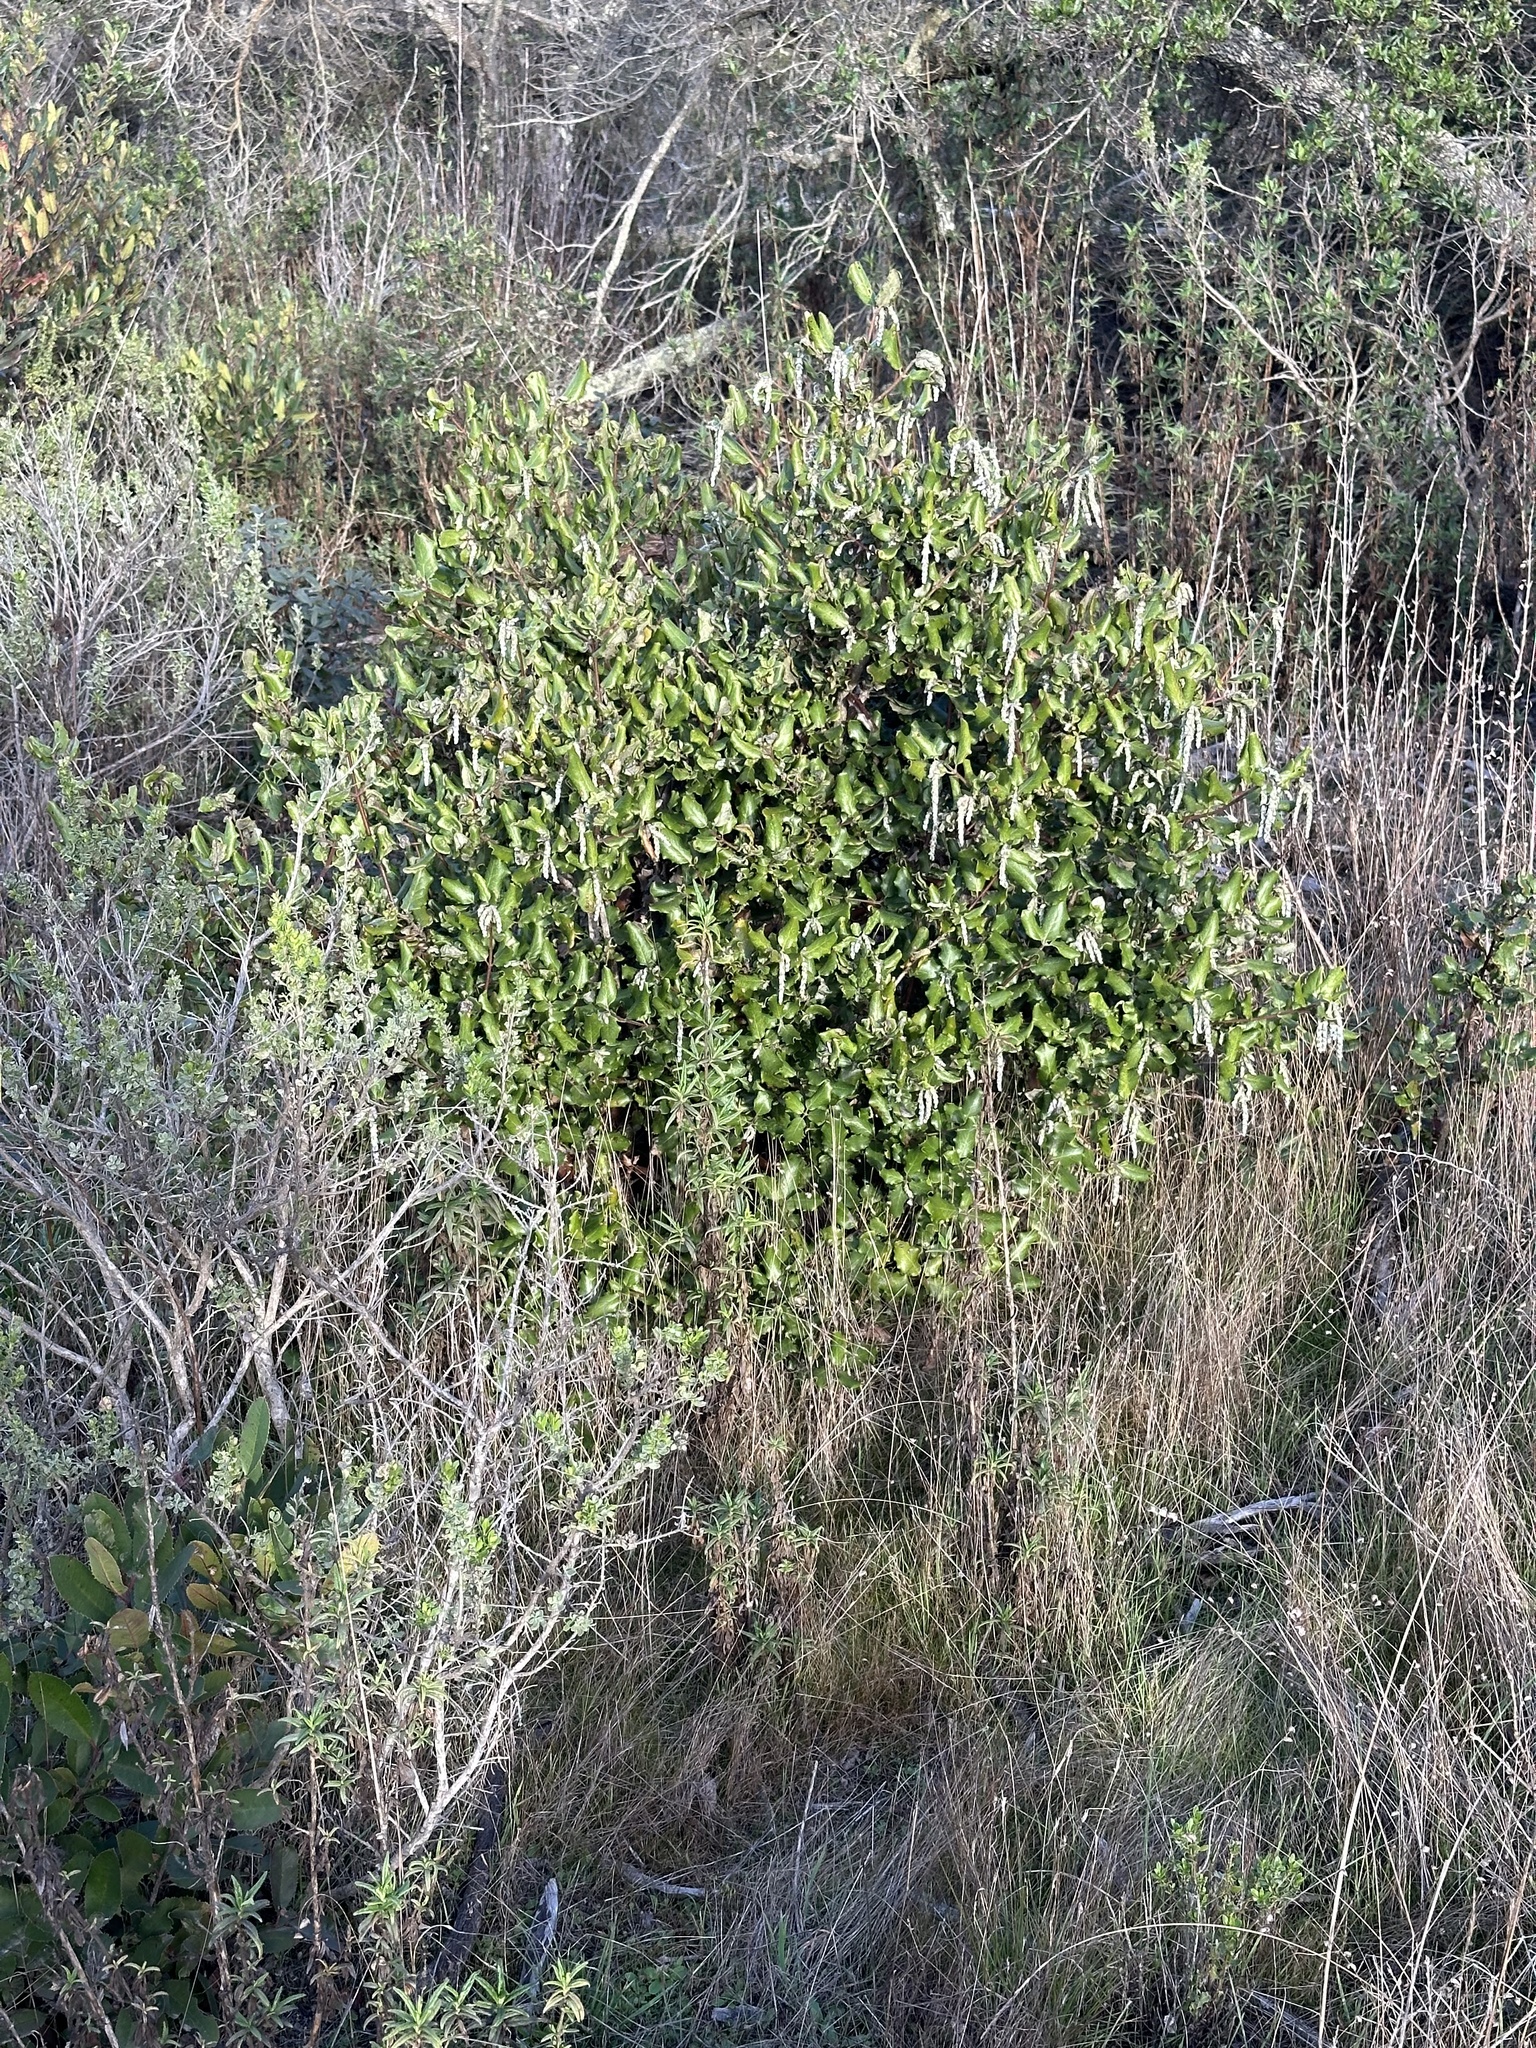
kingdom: Plantae
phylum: Tracheophyta
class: Magnoliopsida
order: Garryales
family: Garryaceae
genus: Garrya
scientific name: Garrya elliptica
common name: Silk-tassel
